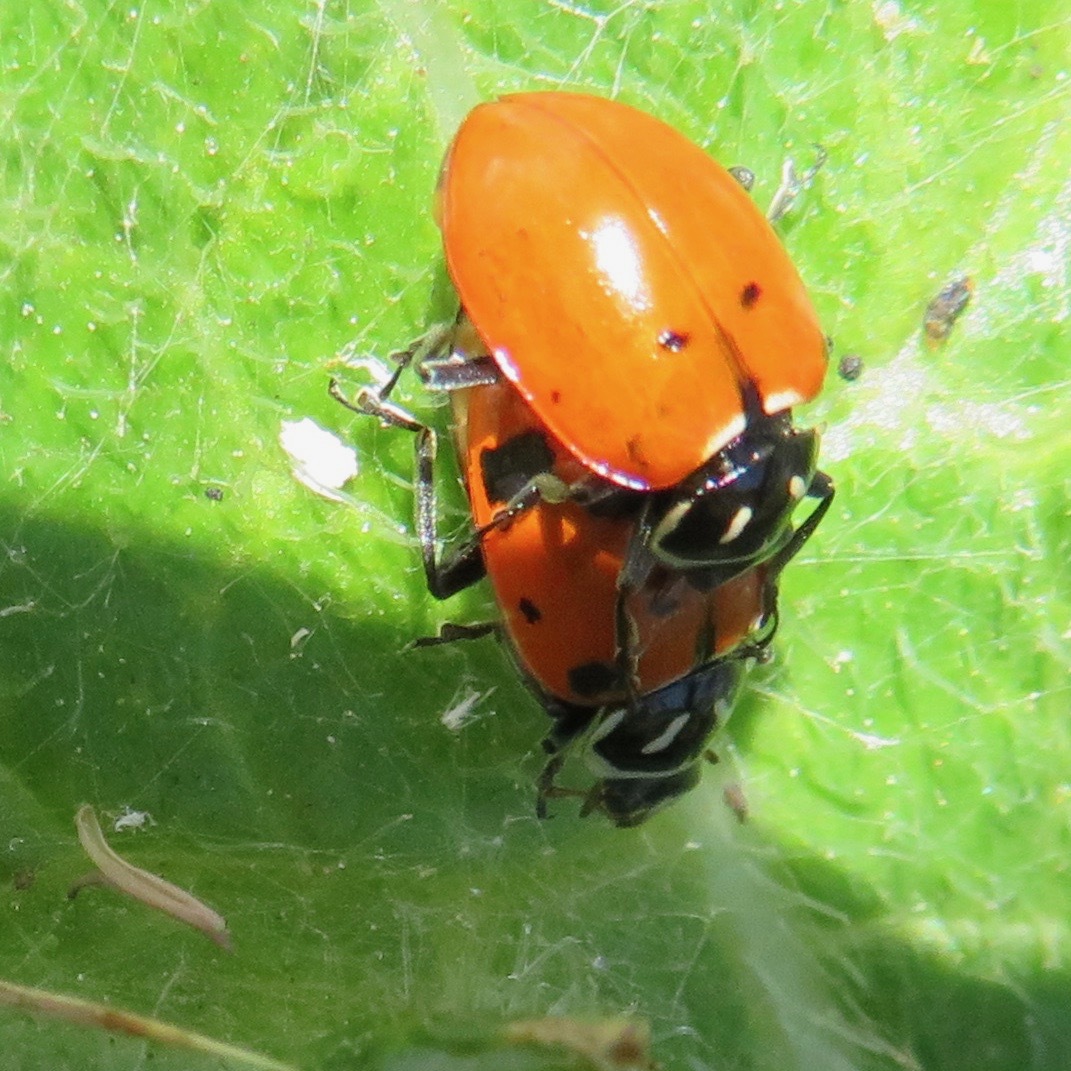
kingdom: Animalia
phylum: Arthropoda
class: Insecta
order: Coleoptera
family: Coccinellidae
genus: Hippodamia
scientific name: Hippodamia convergens
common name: Convergent lady beetle
